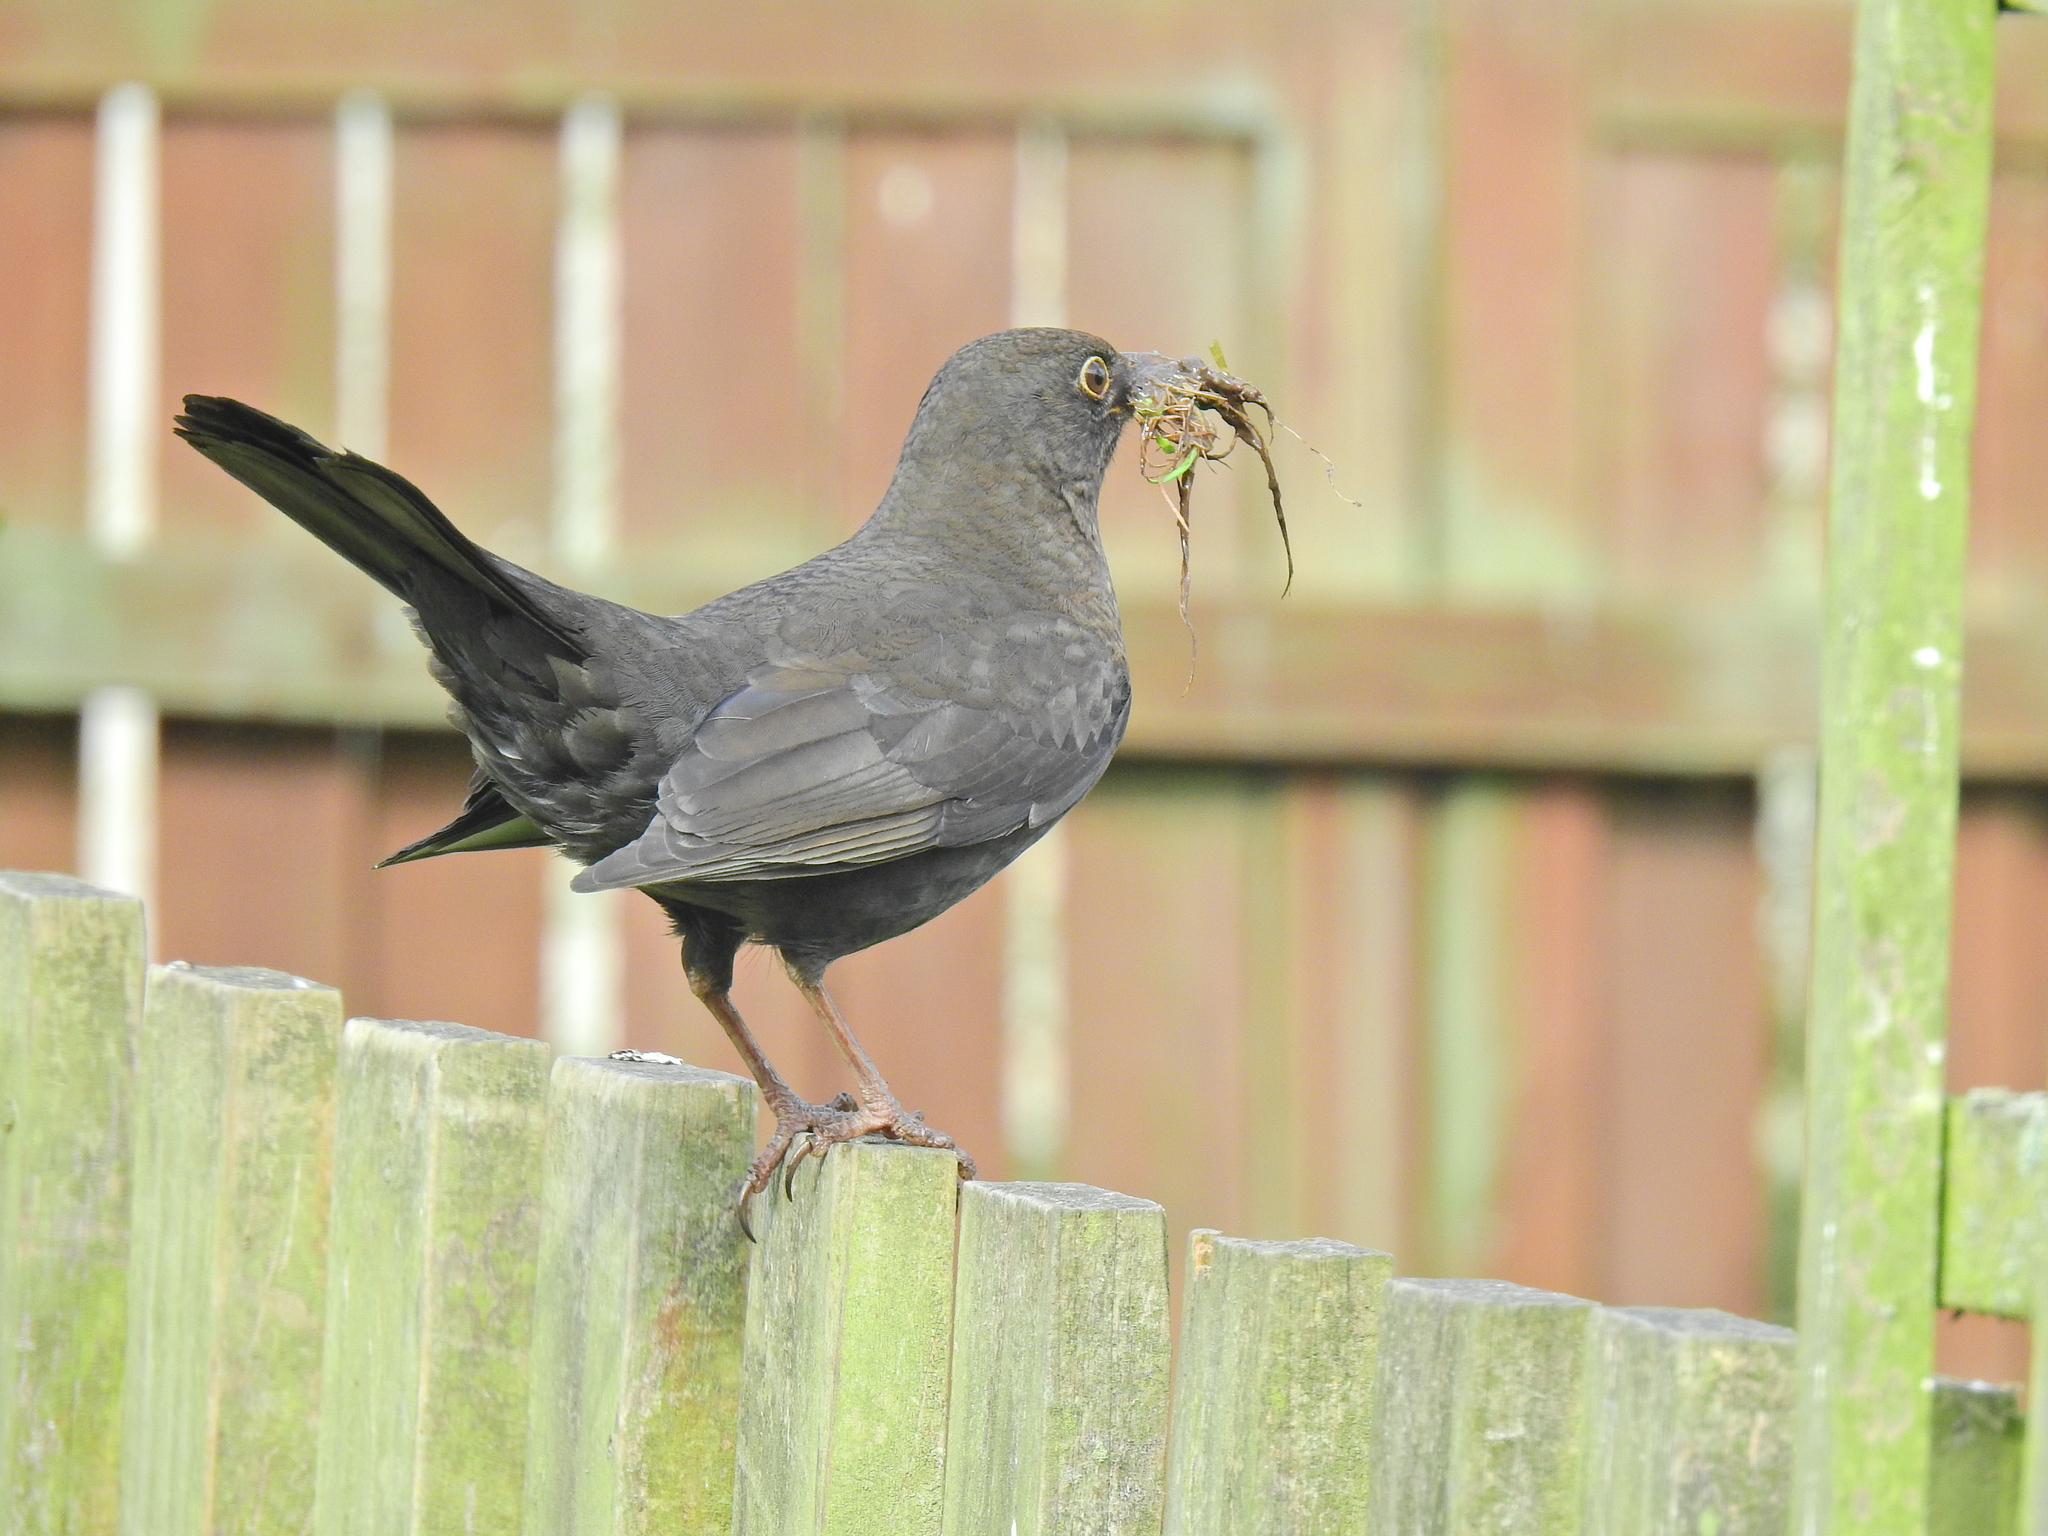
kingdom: Animalia
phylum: Chordata
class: Aves
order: Passeriformes
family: Turdidae
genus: Turdus
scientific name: Turdus merula
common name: Common blackbird
